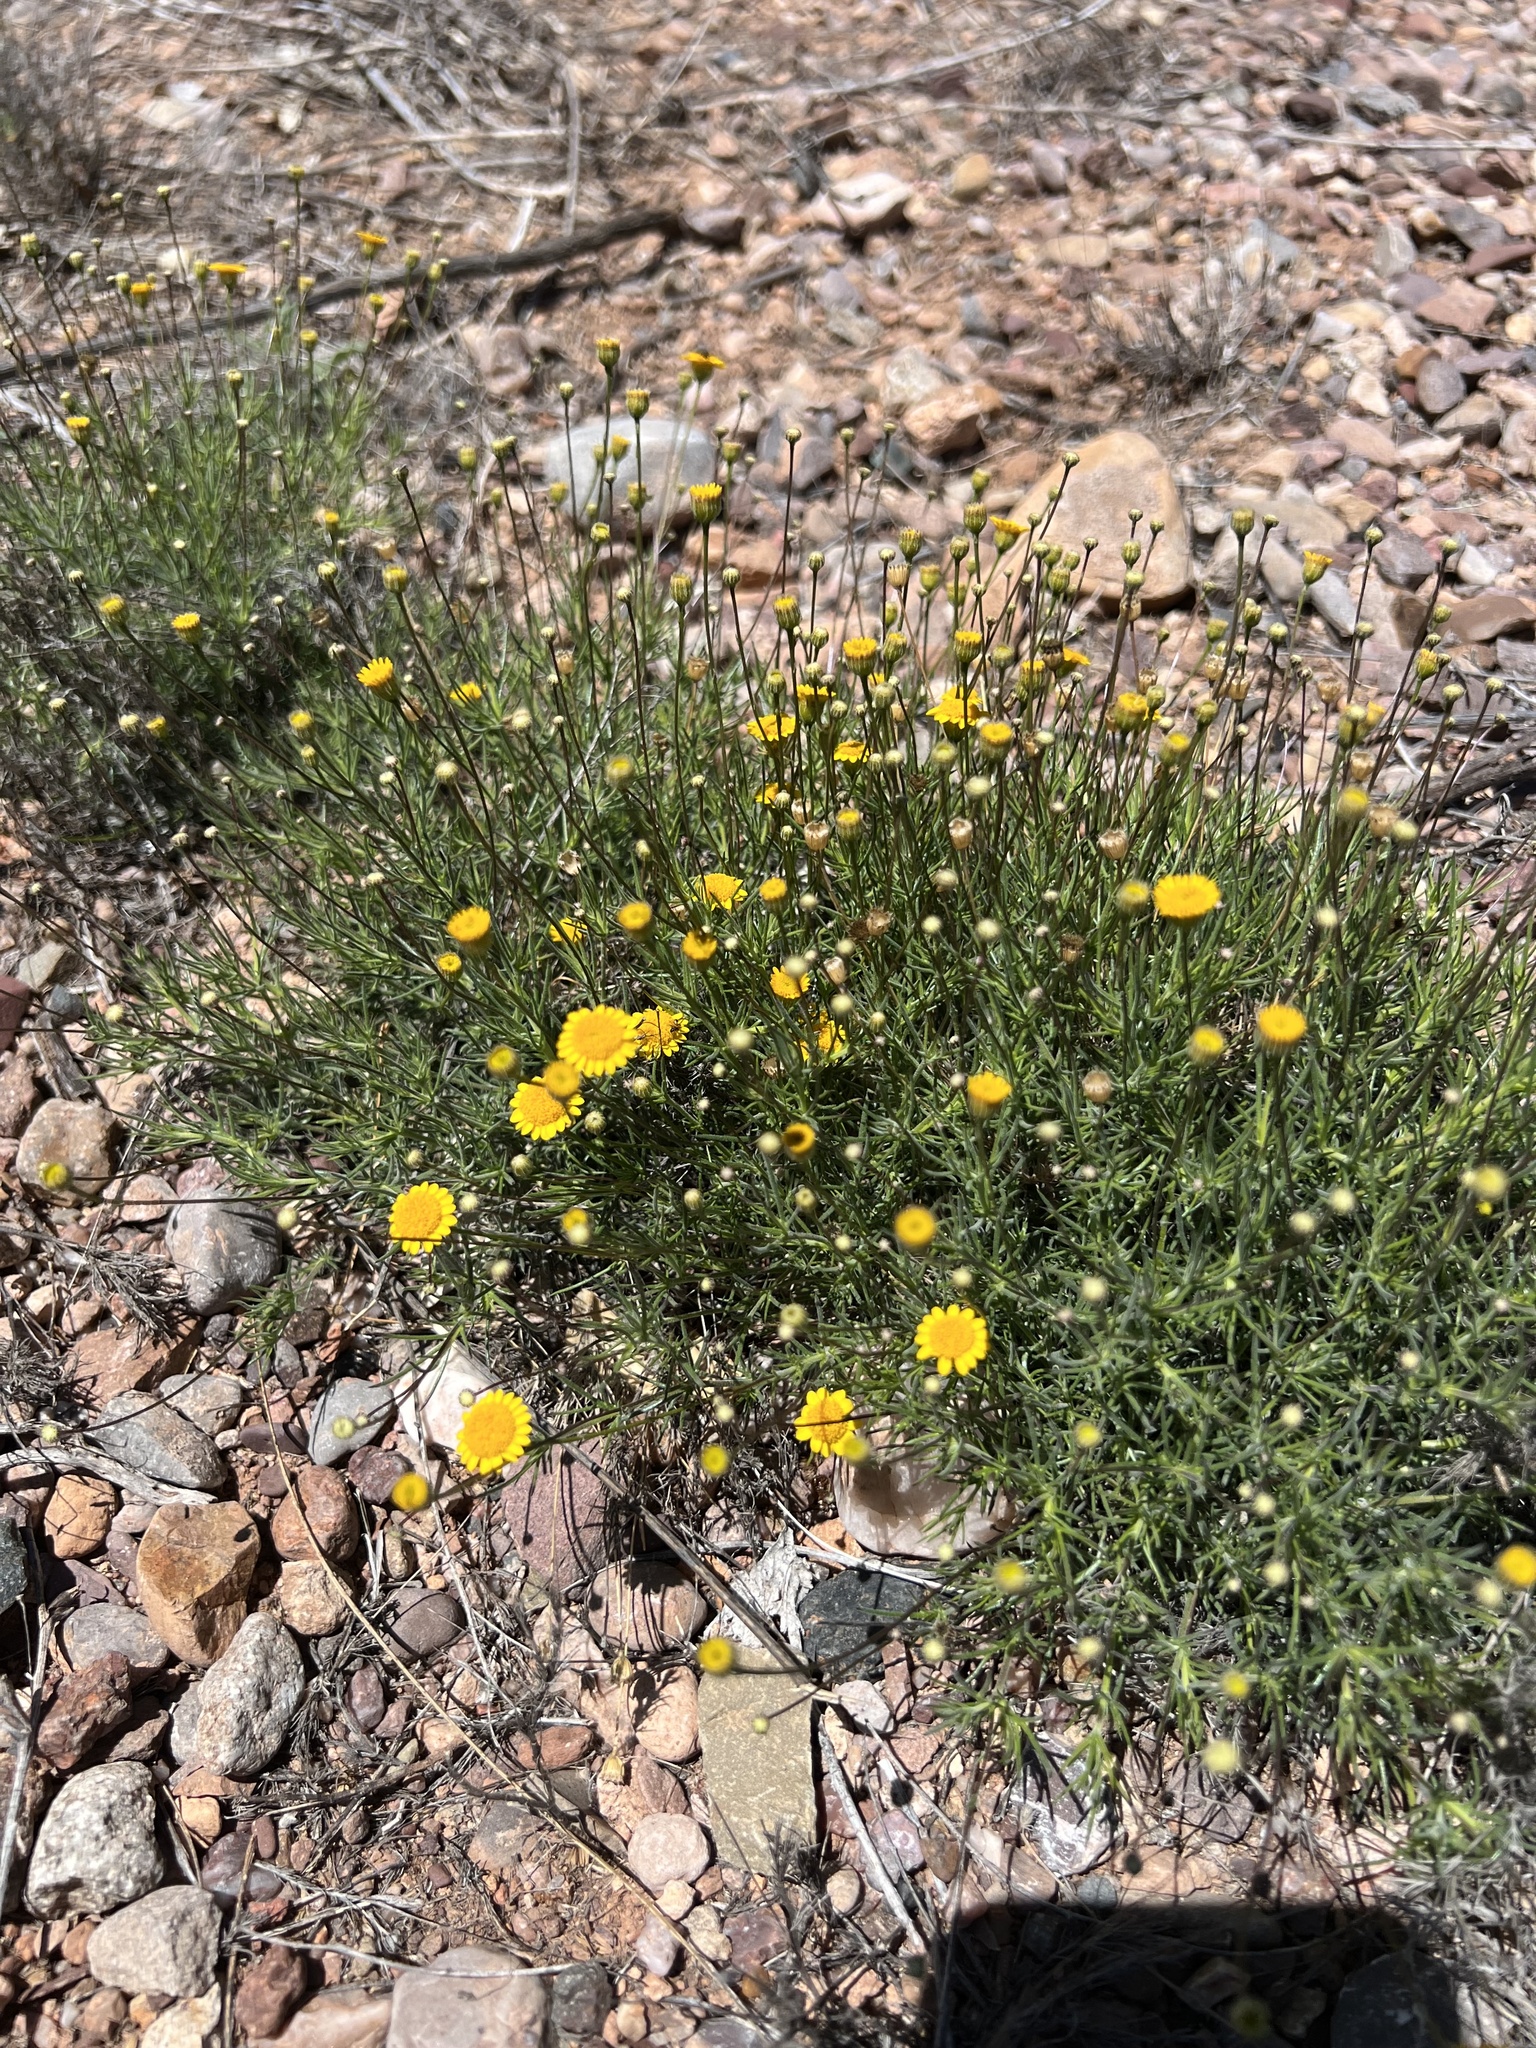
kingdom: Plantae
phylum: Tracheophyta
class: Magnoliopsida
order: Asterales
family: Asteraceae
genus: Thymophylla
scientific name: Thymophylla pentachaeta
